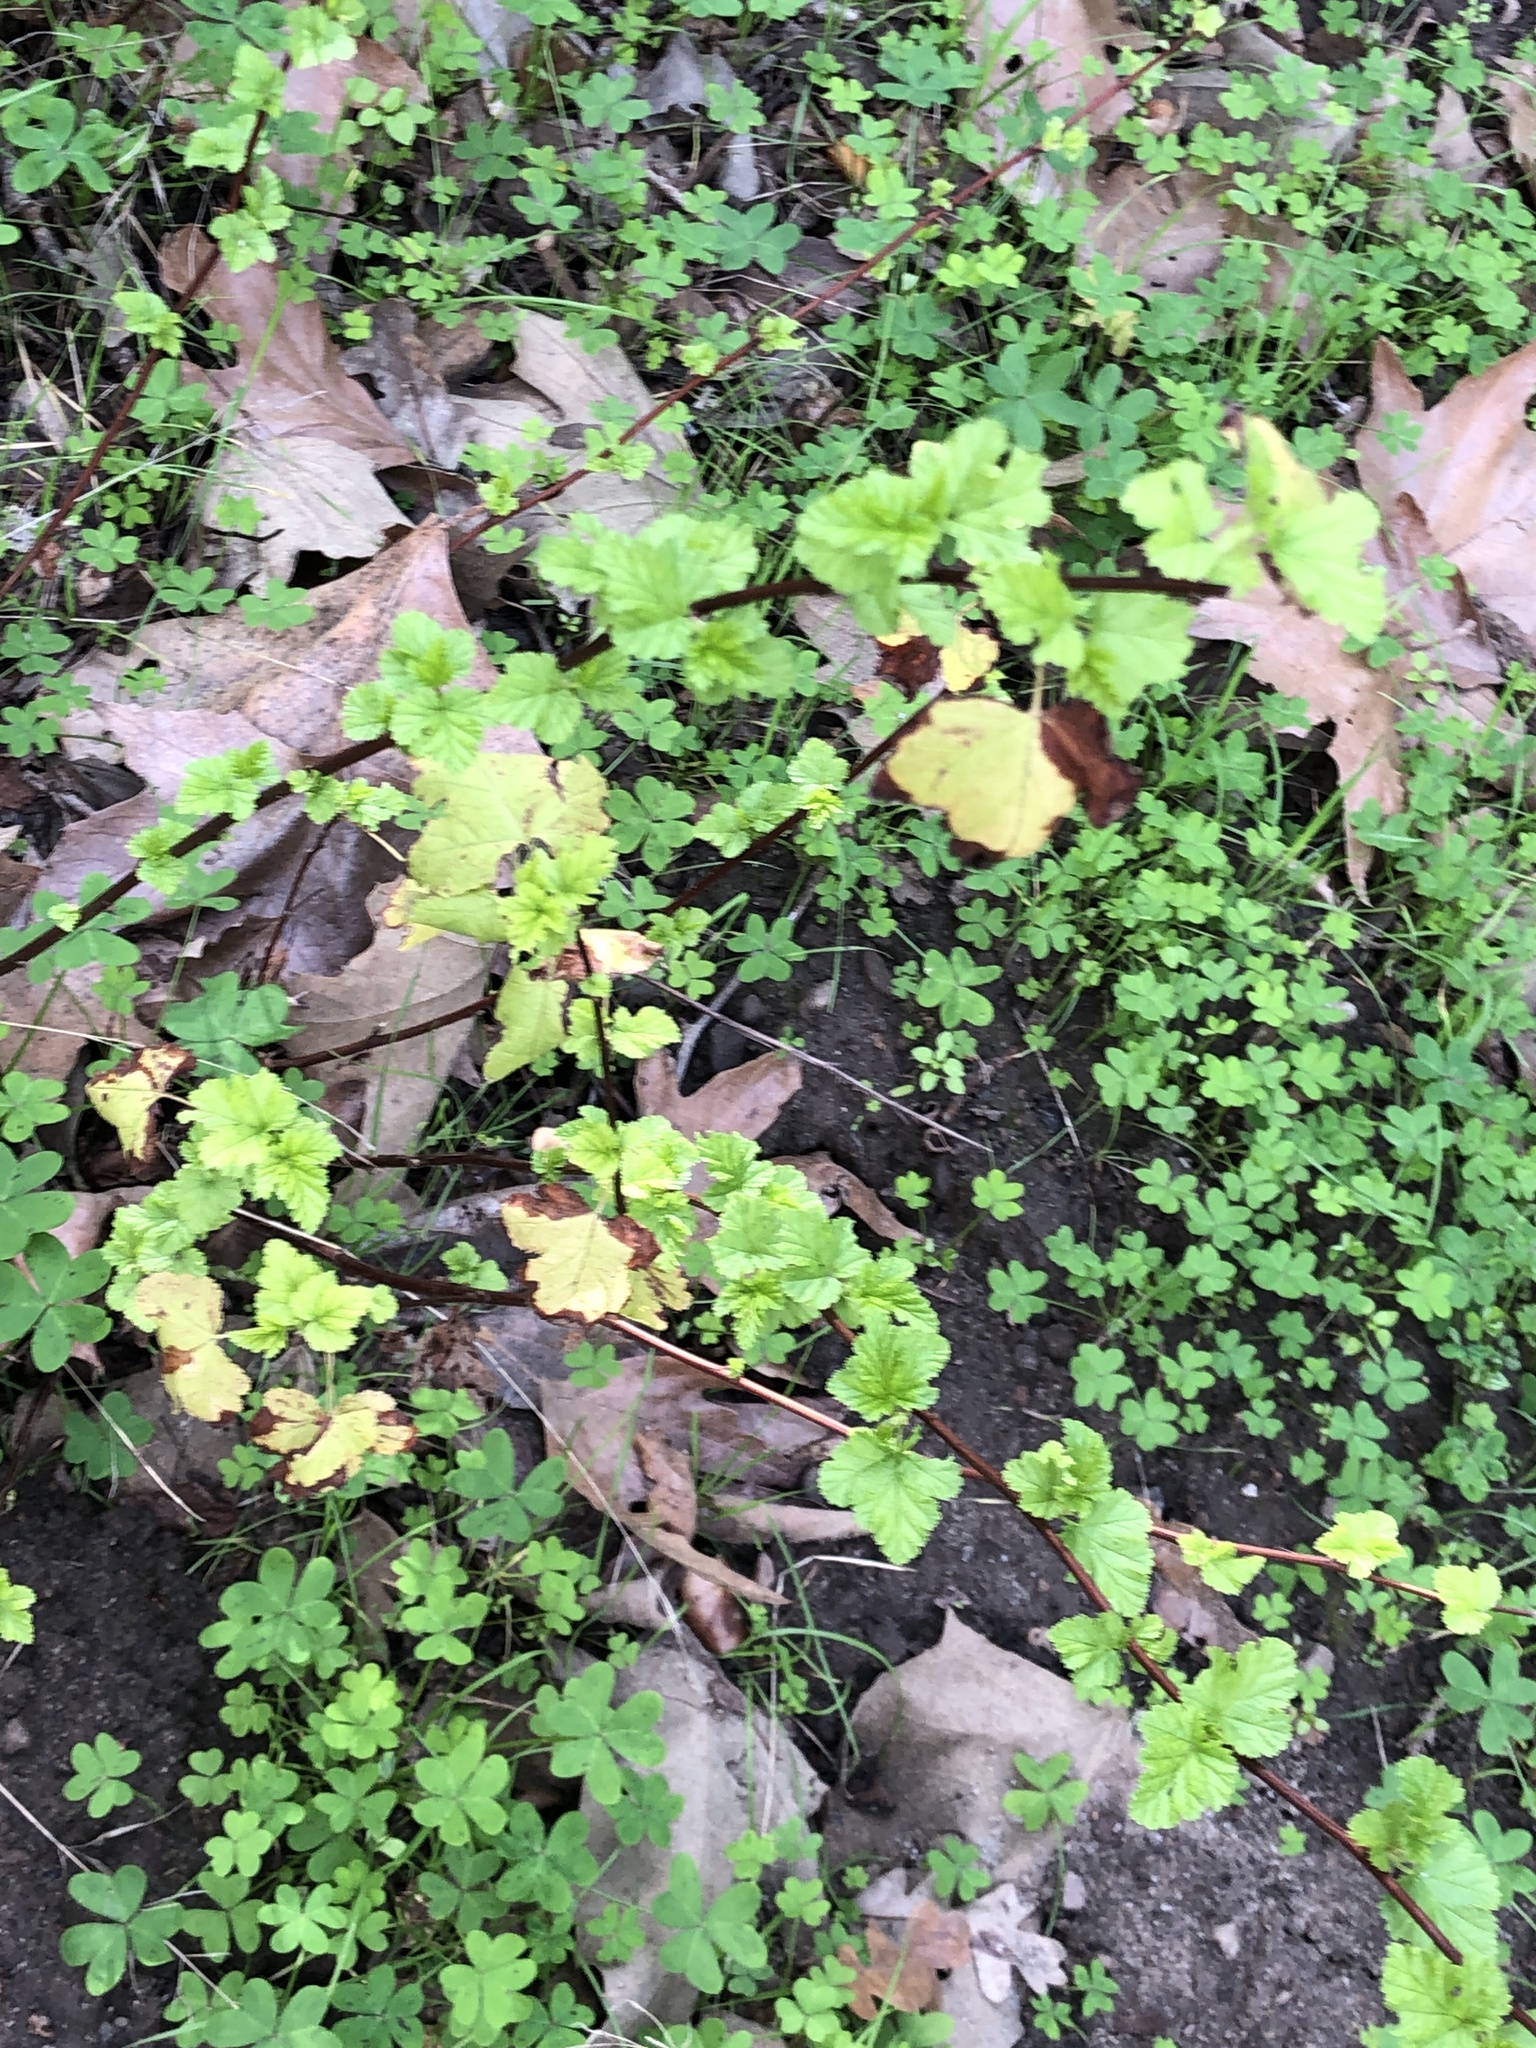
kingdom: Plantae
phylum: Tracheophyta
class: Magnoliopsida
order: Saxifragales
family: Grossulariaceae
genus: Ribes
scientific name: Ribes californicum
